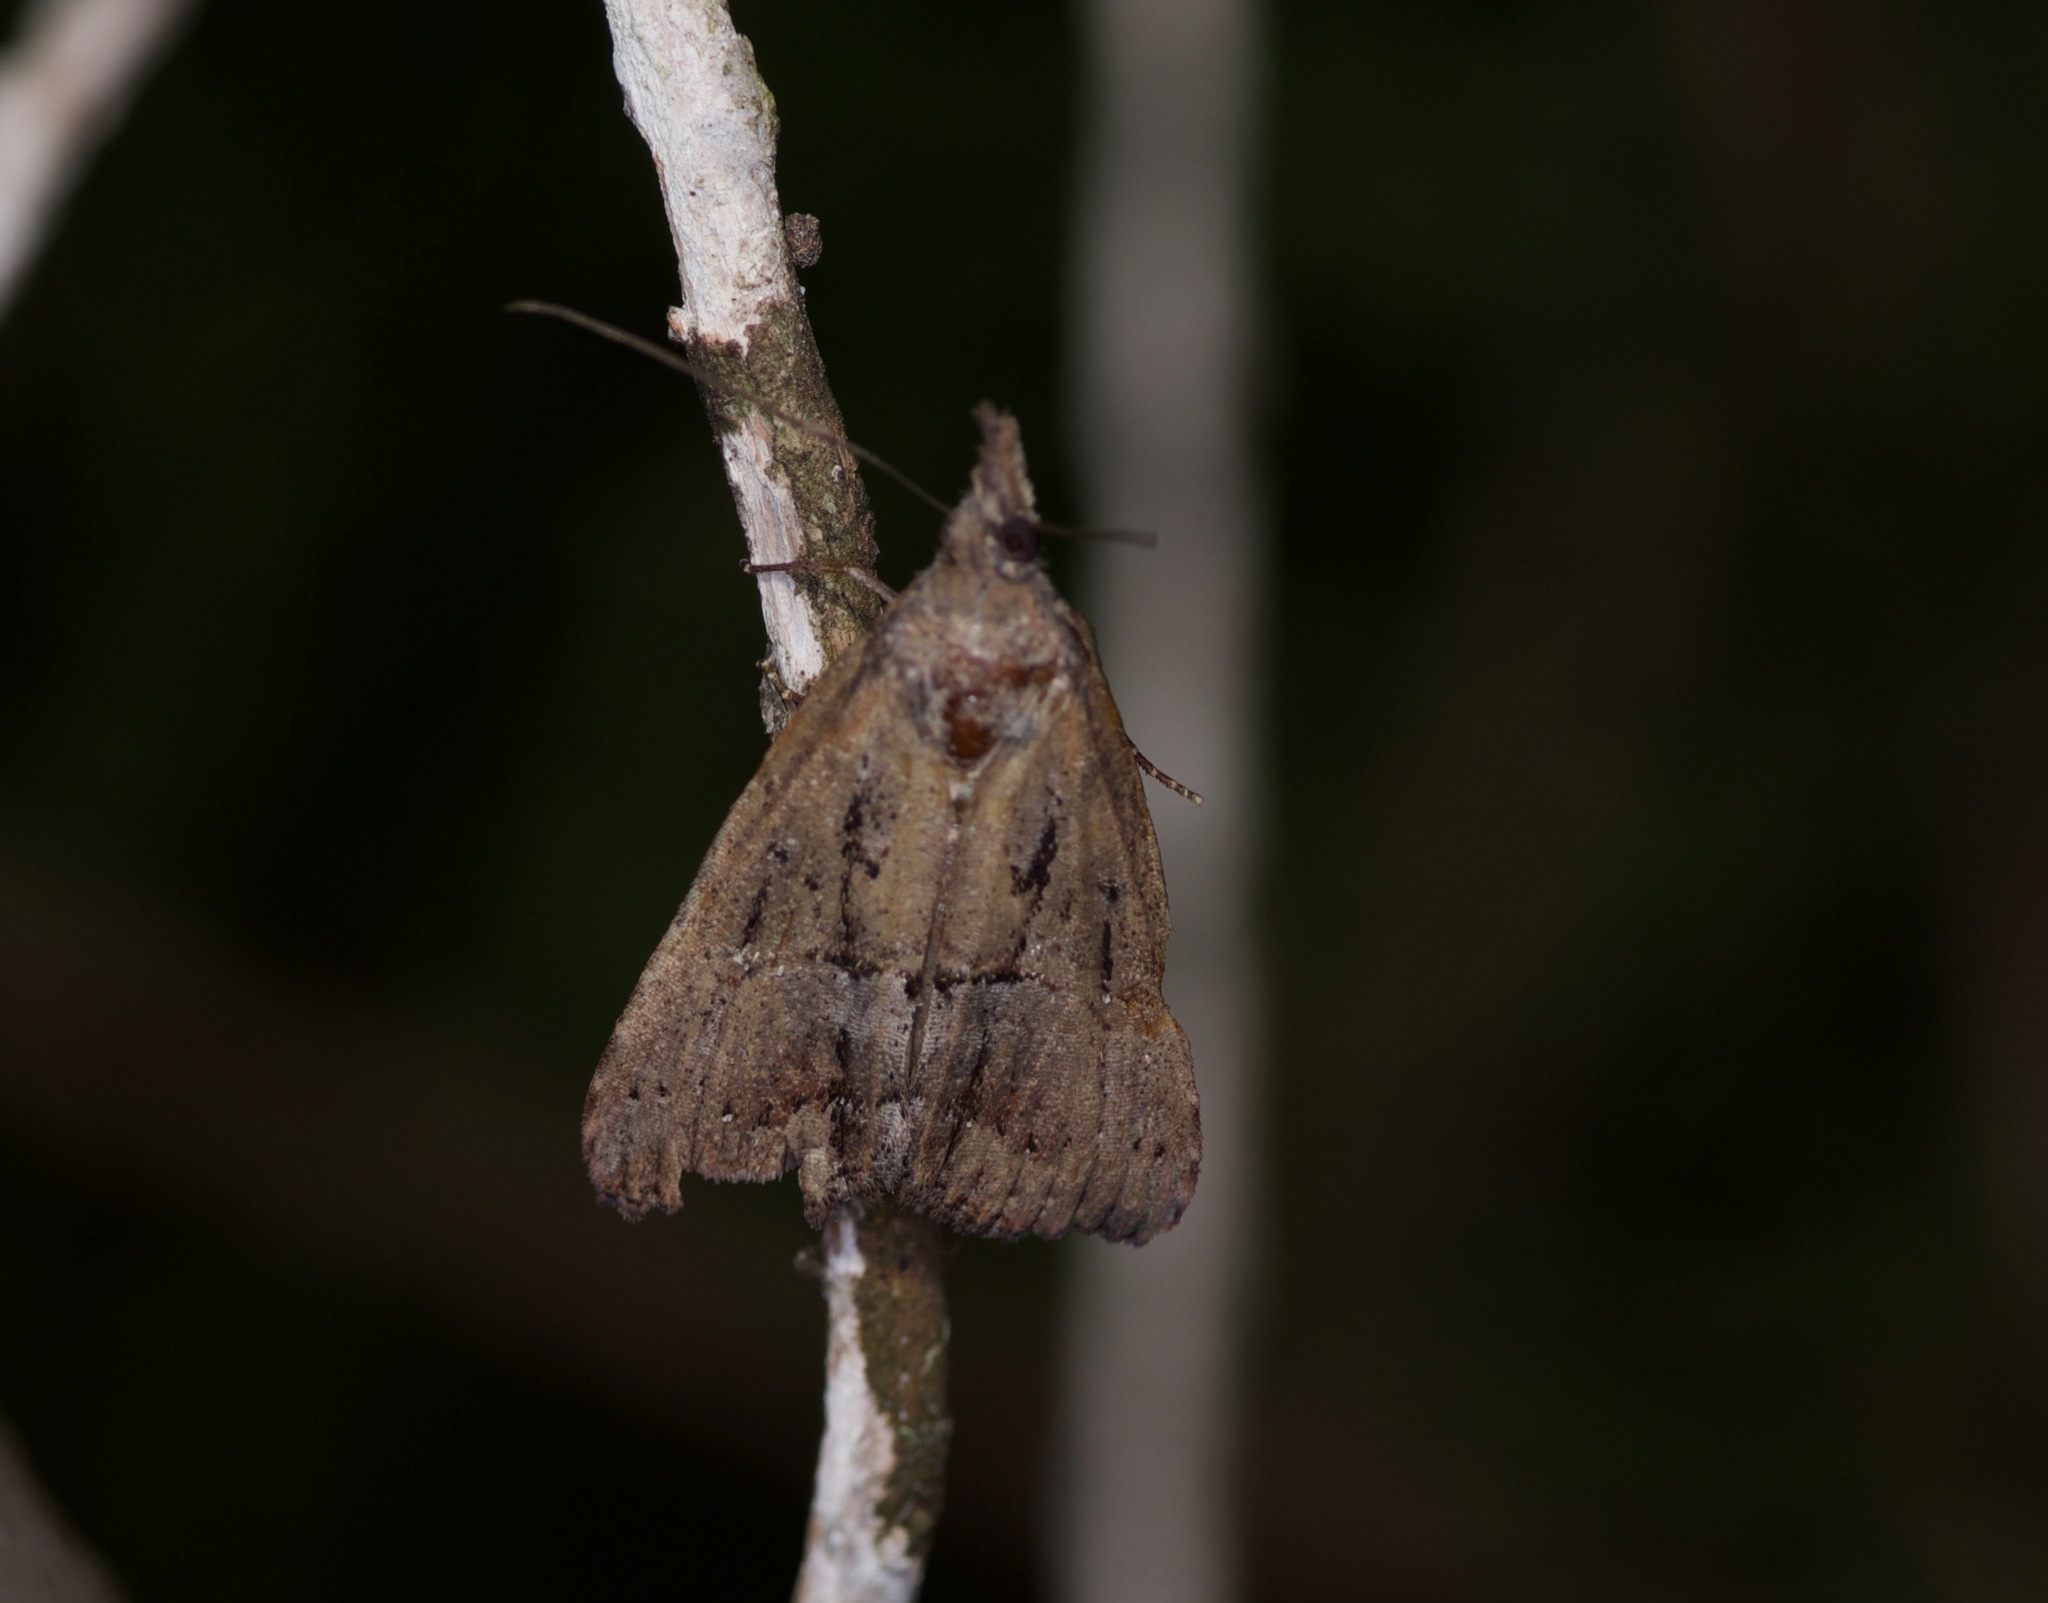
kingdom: Animalia
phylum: Arthropoda
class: Insecta
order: Lepidoptera
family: Erebidae
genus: Hypena
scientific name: Hypena scabra
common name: Green cloverworm
